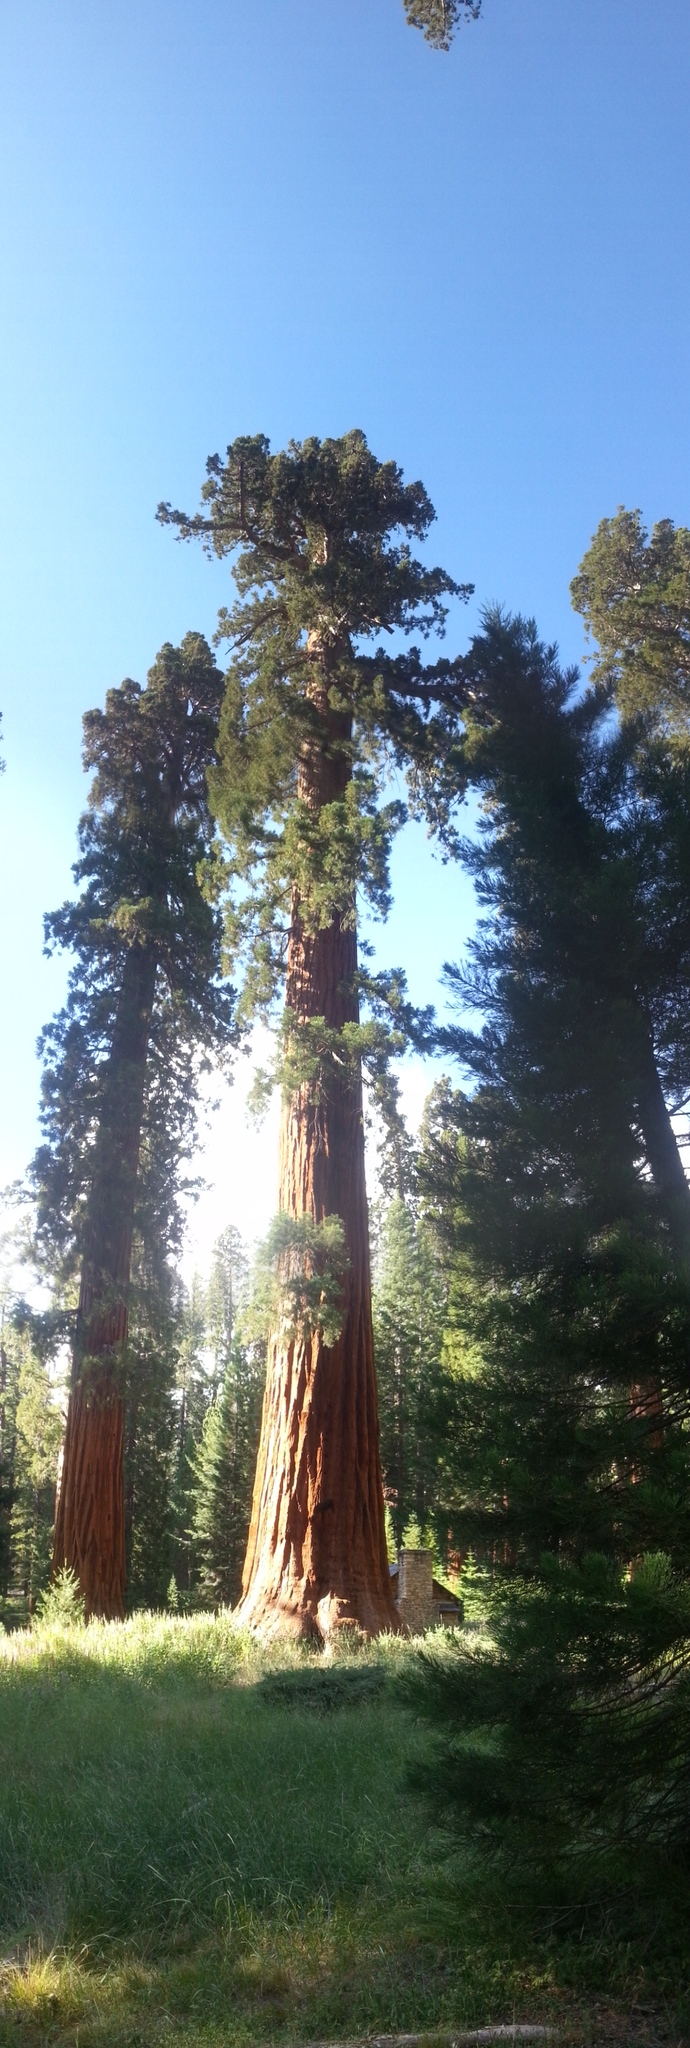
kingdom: Plantae
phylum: Tracheophyta
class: Pinopsida
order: Pinales
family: Cupressaceae
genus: Sequoiadendron
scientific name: Sequoiadendron giganteum
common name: Wellingtonia
